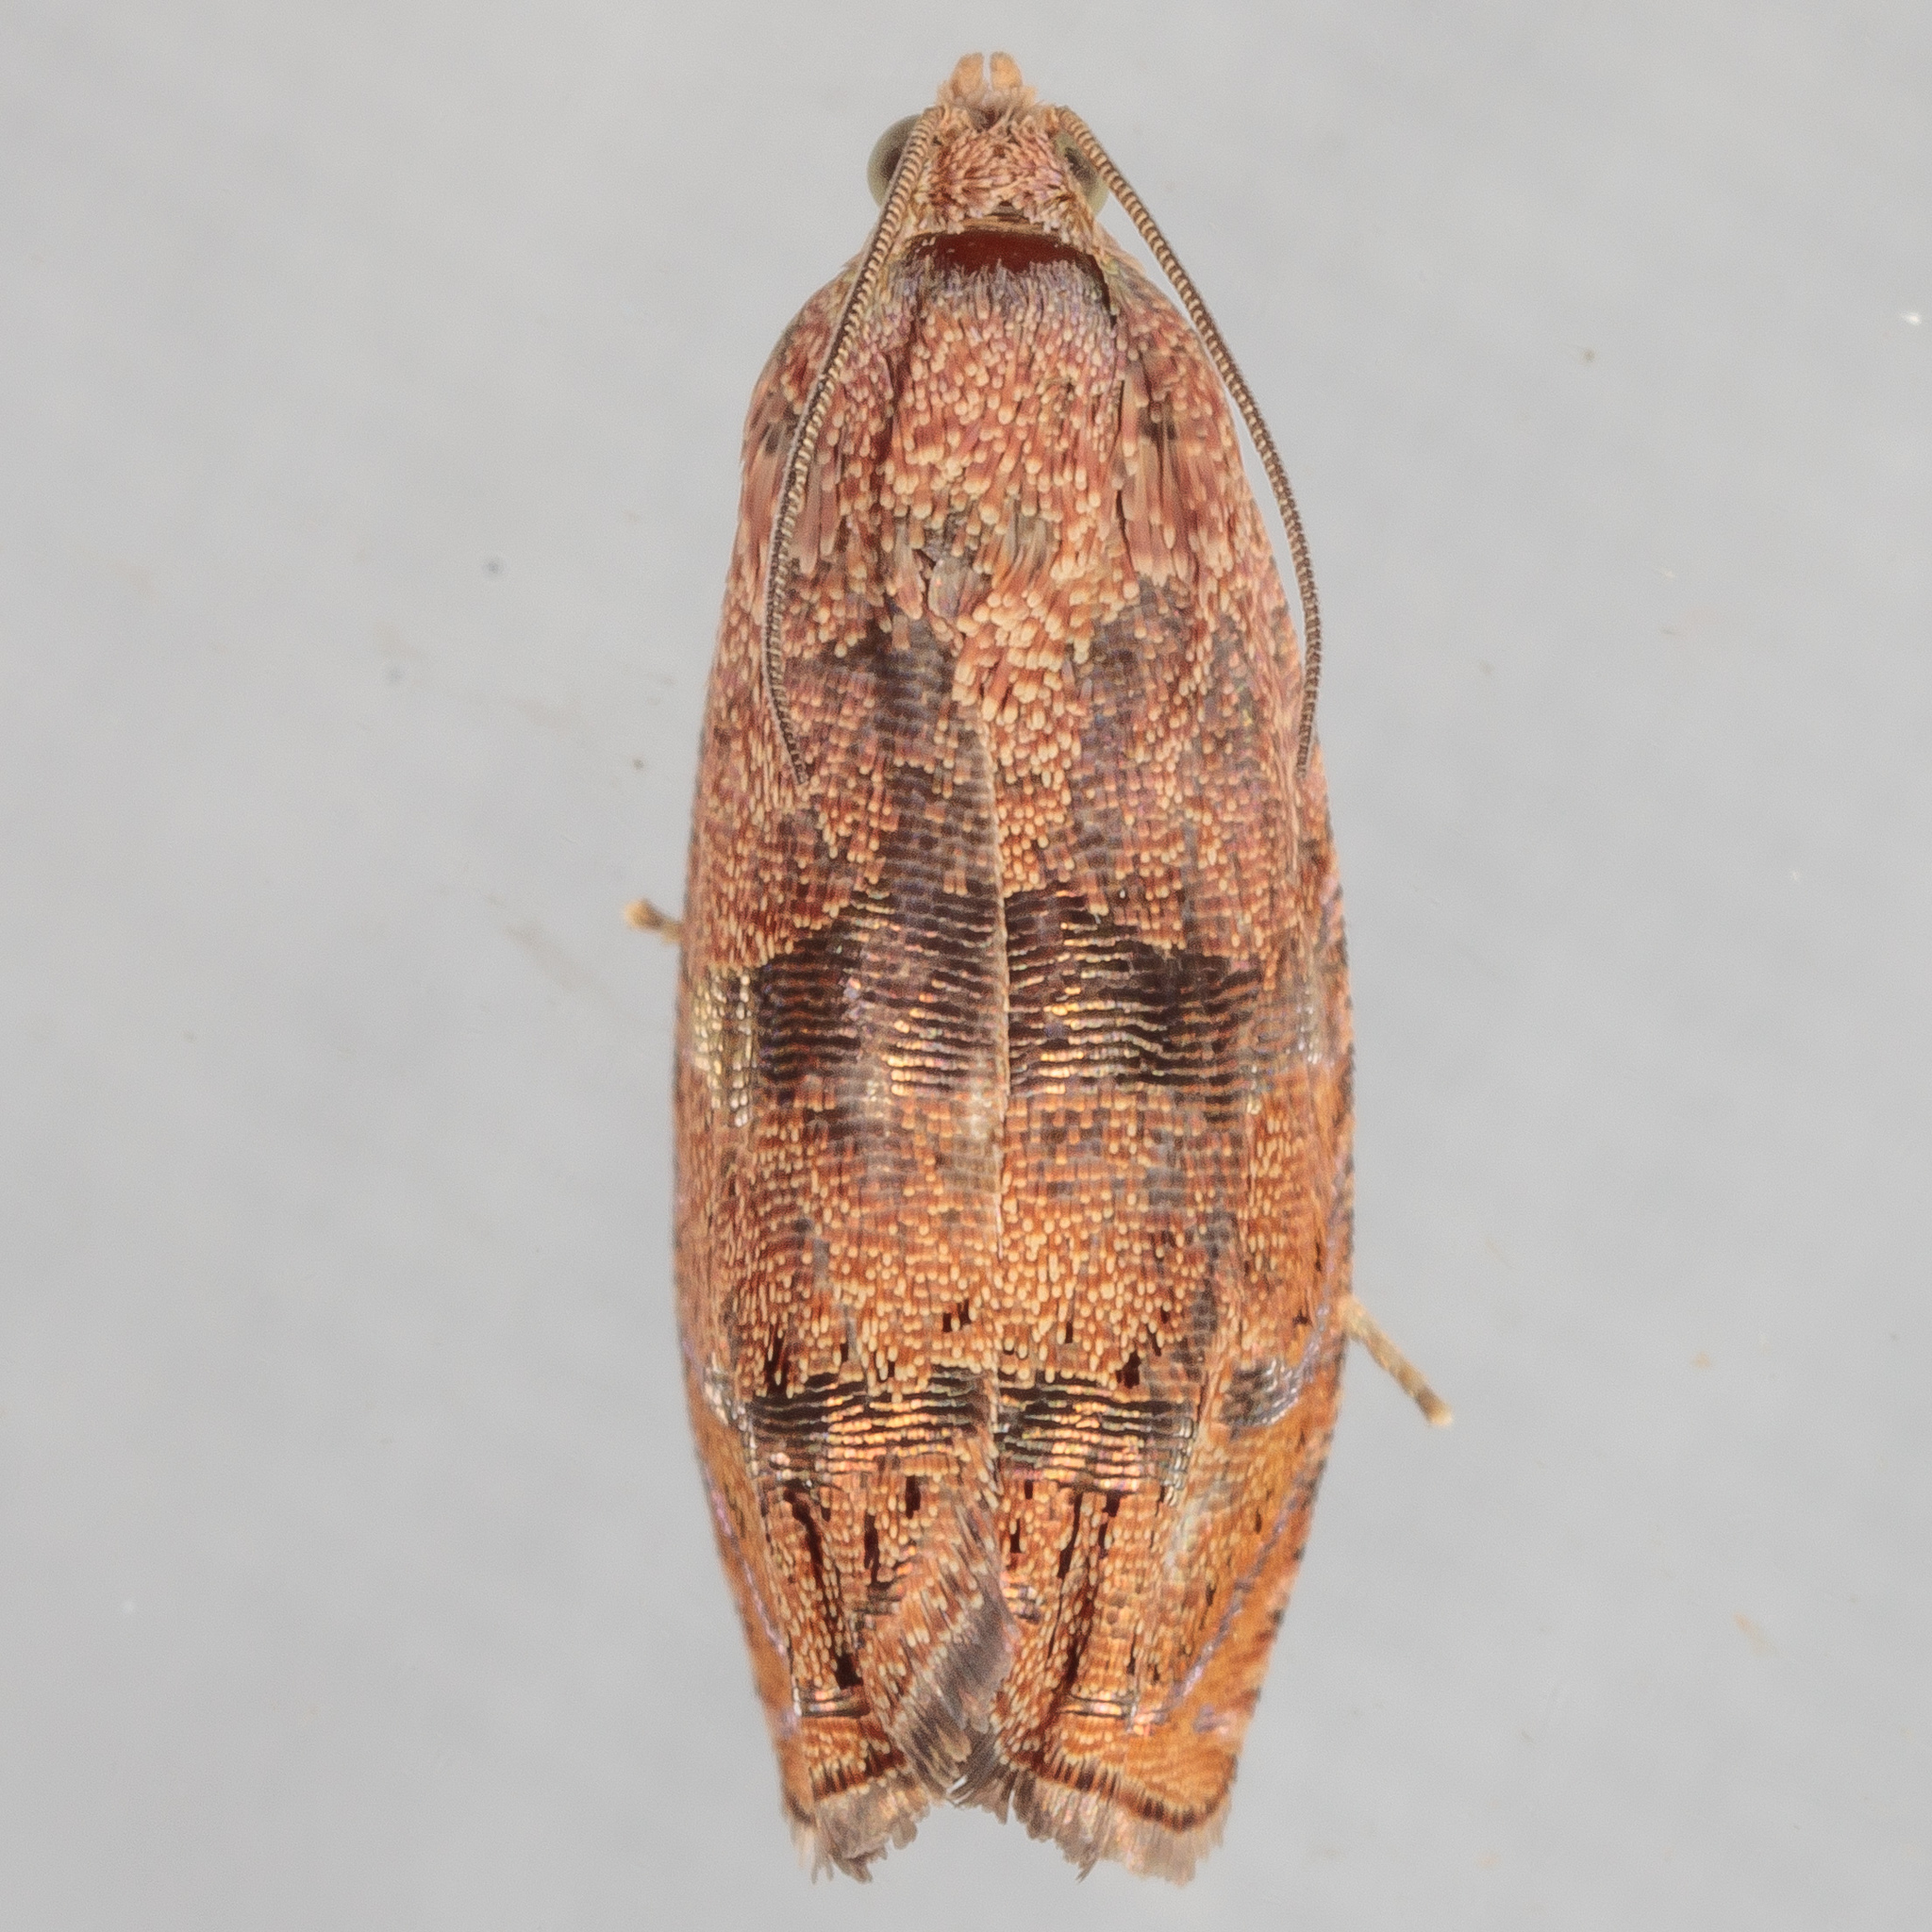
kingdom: Animalia
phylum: Arthropoda
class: Insecta
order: Lepidoptera
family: Tortricidae
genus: Cydia
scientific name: Cydia latiferreana
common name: Filbertworm moth
